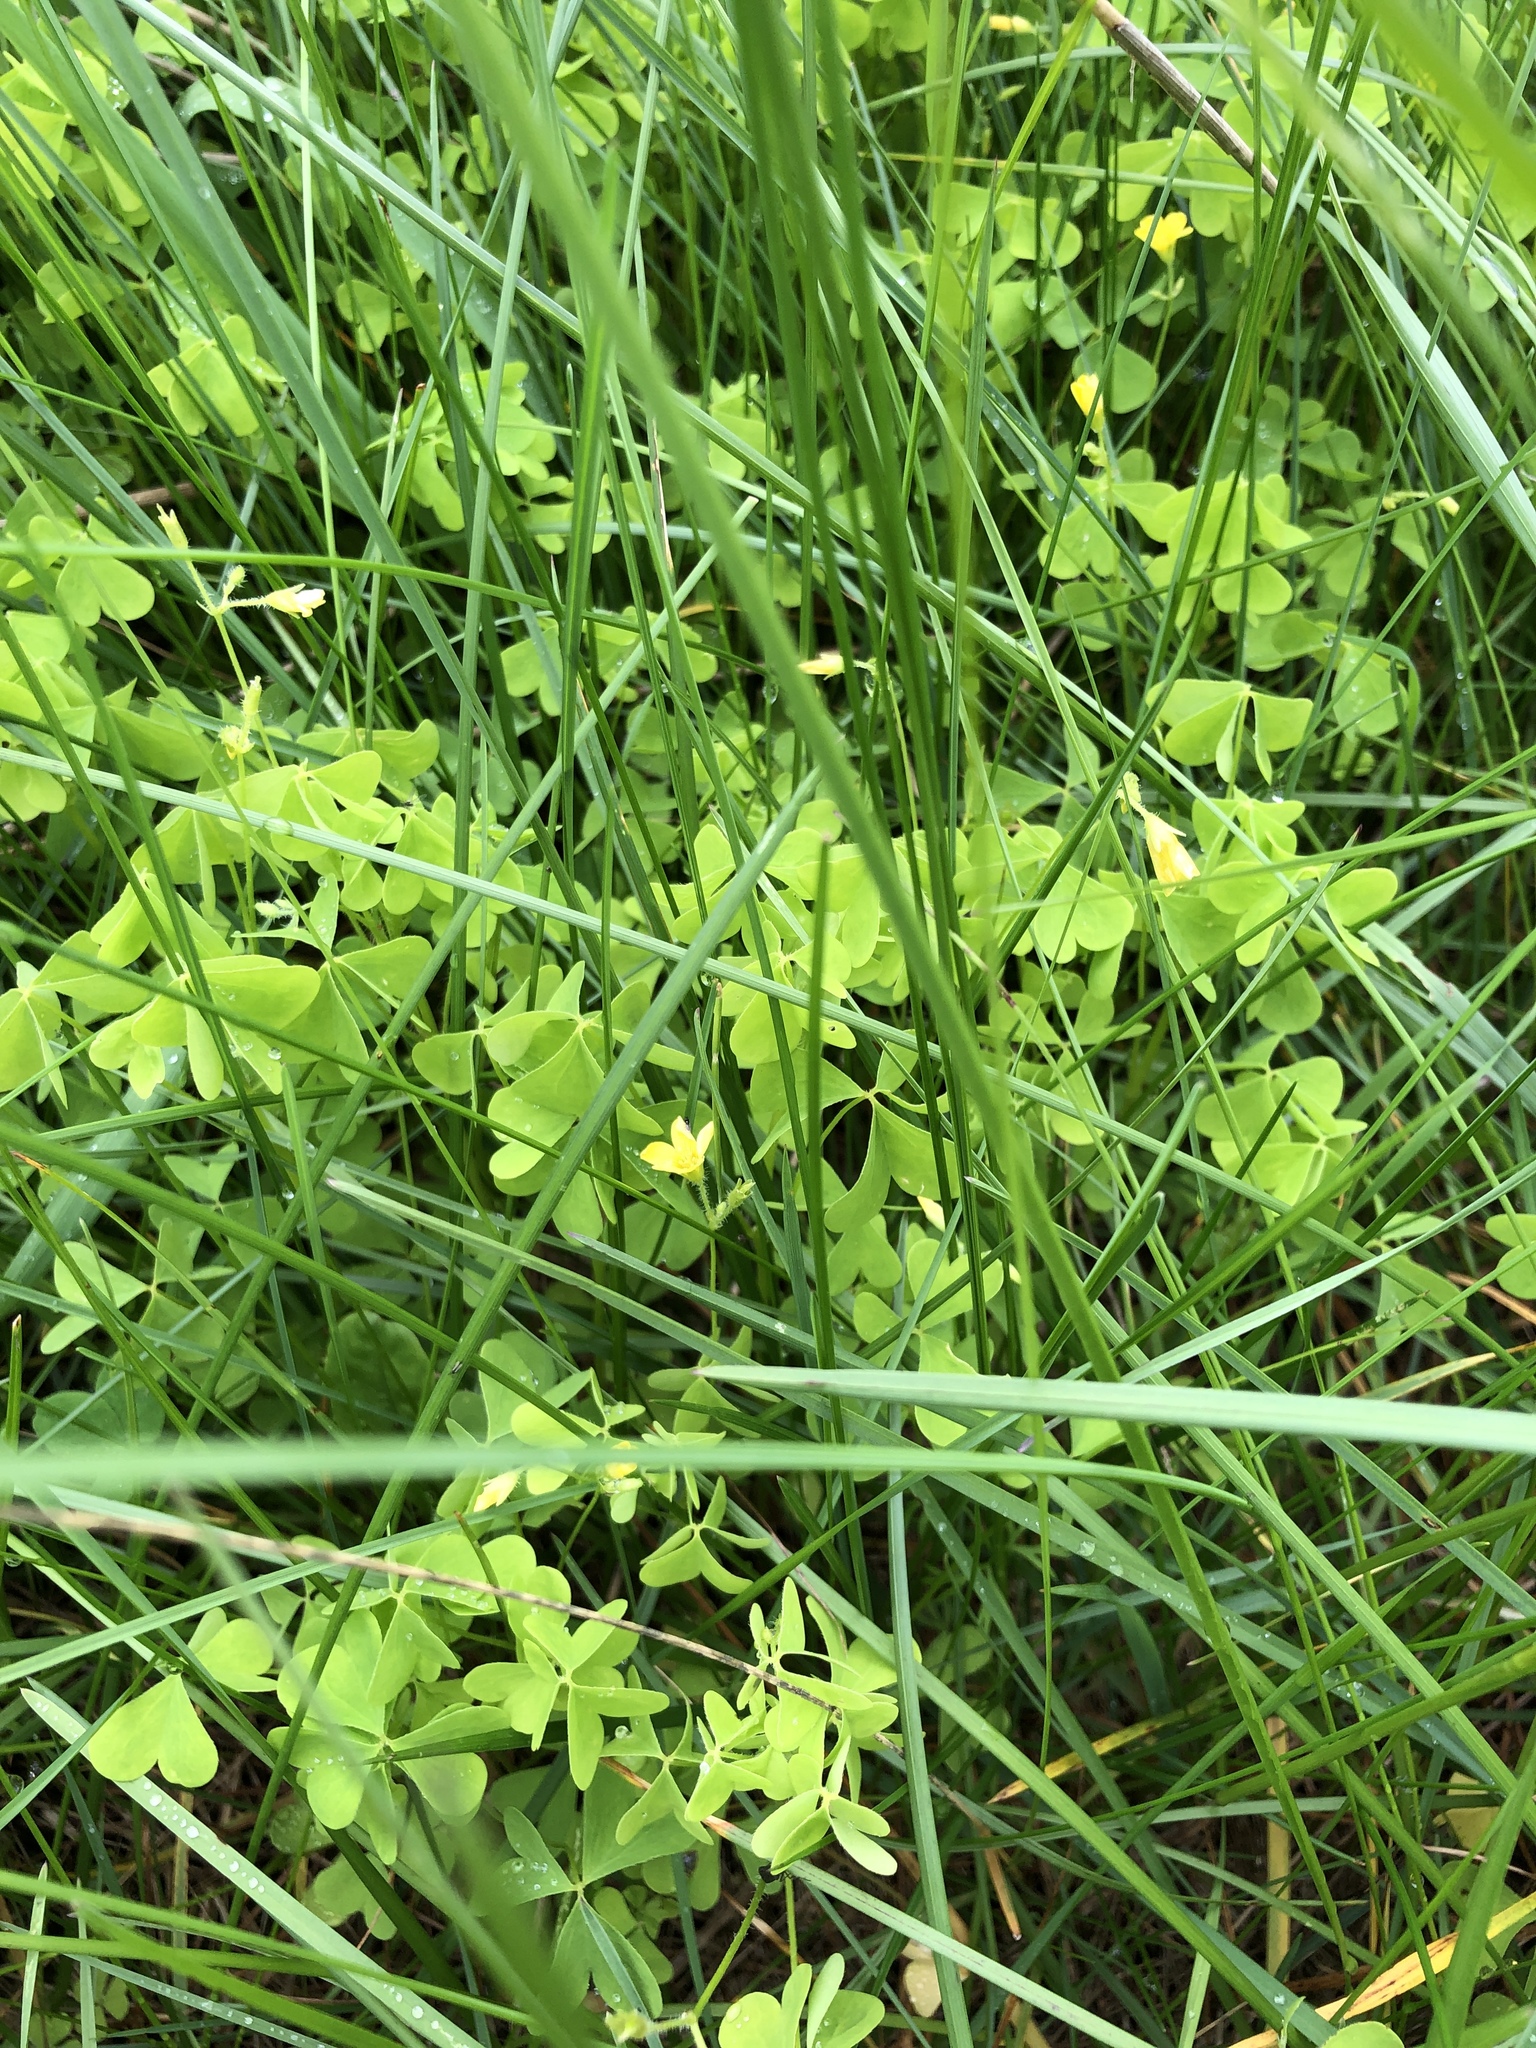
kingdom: Plantae
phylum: Tracheophyta
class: Magnoliopsida
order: Oxalidales
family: Oxalidaceae
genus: Oxalis
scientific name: Oxalis stricta
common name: Upright yellow-sorrel
